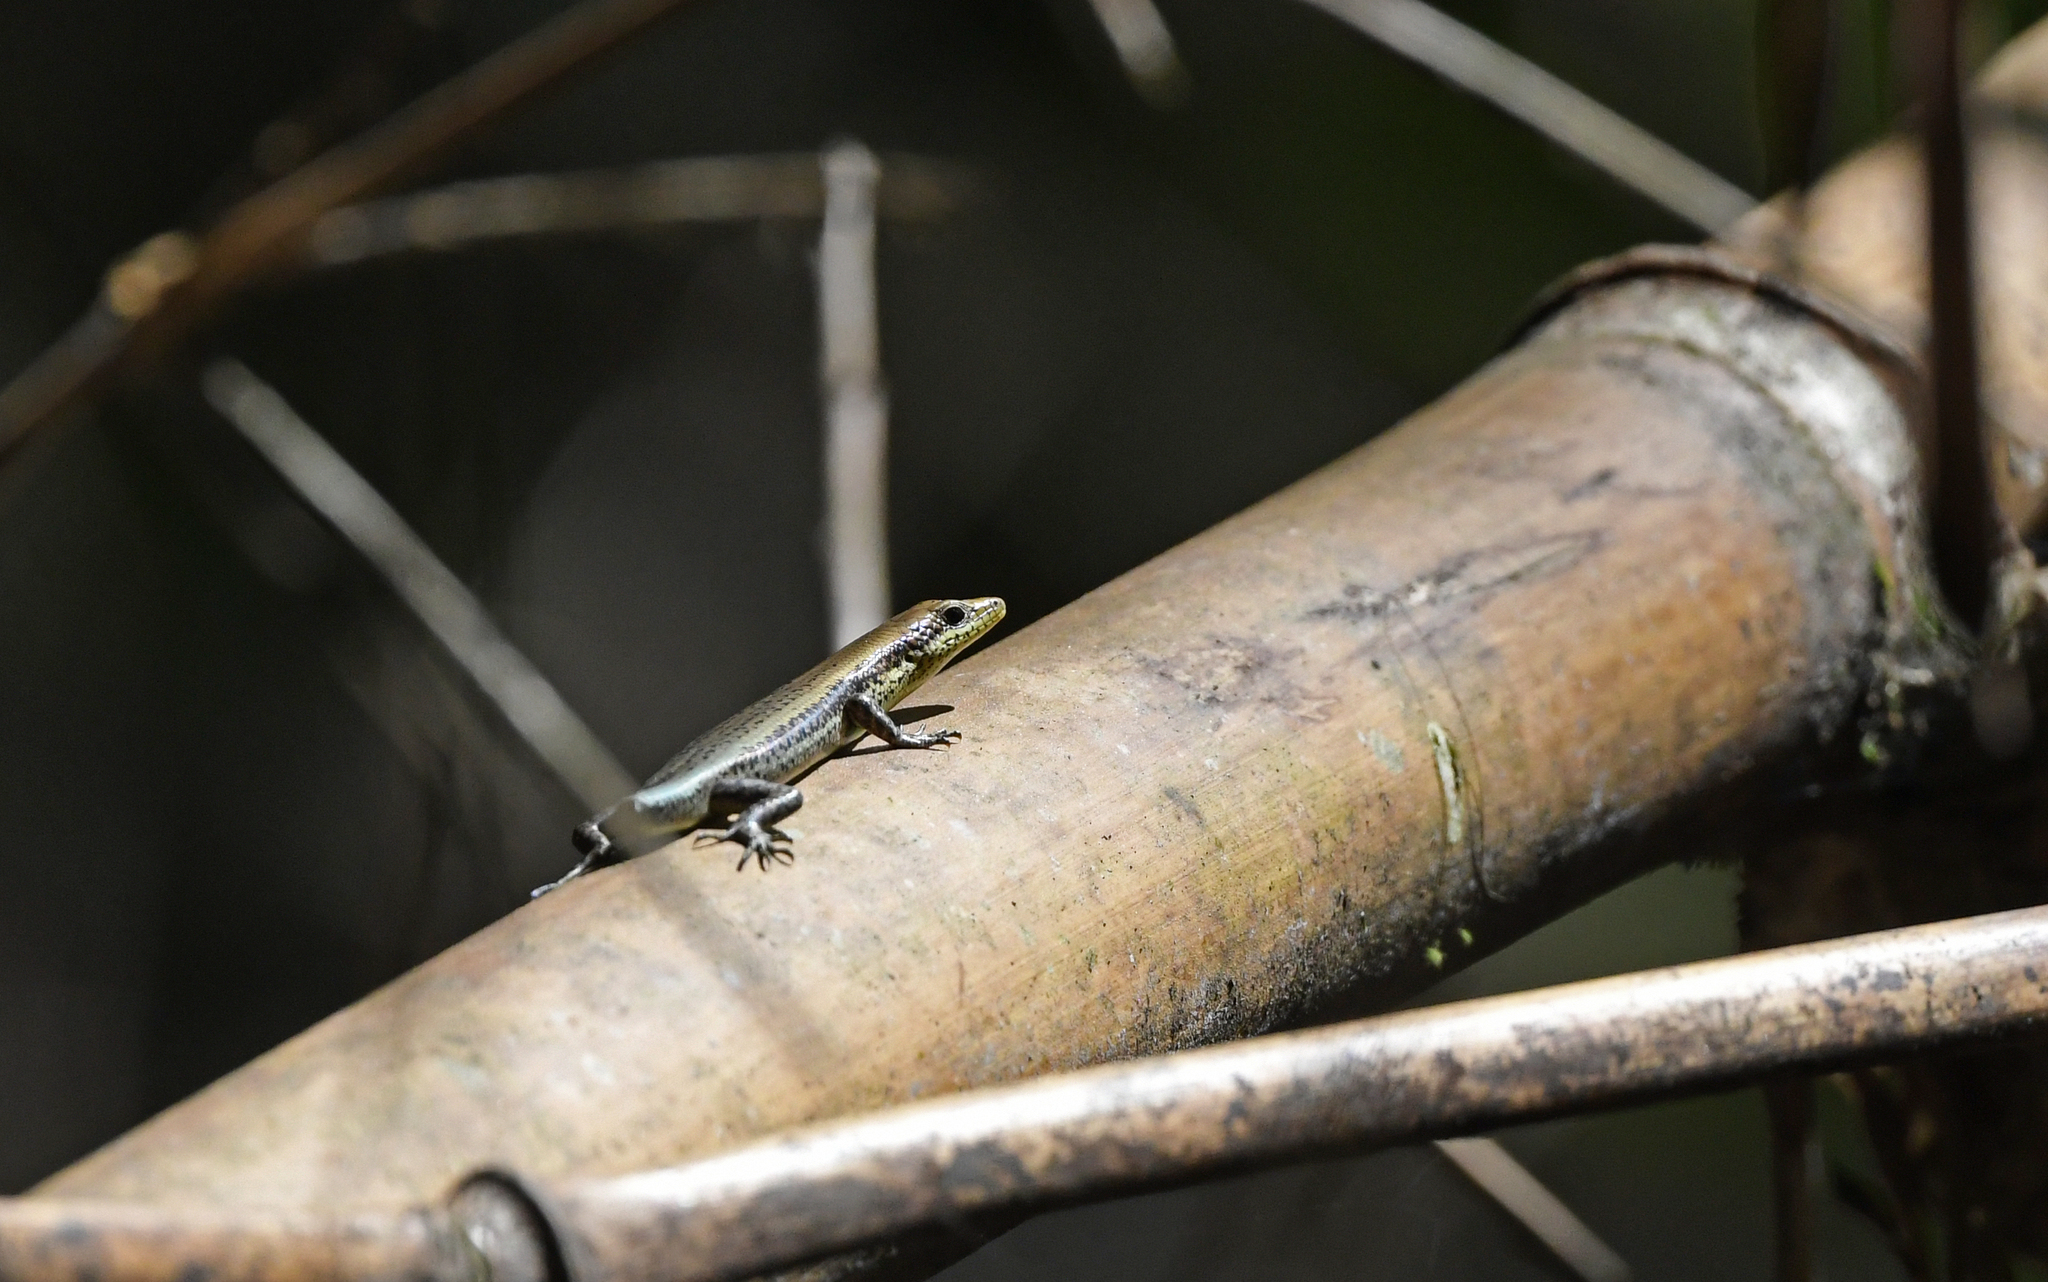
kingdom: Animalia
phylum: Chordata
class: Squamata
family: Scincidae
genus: Varzea
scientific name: Varzea altamazonica
